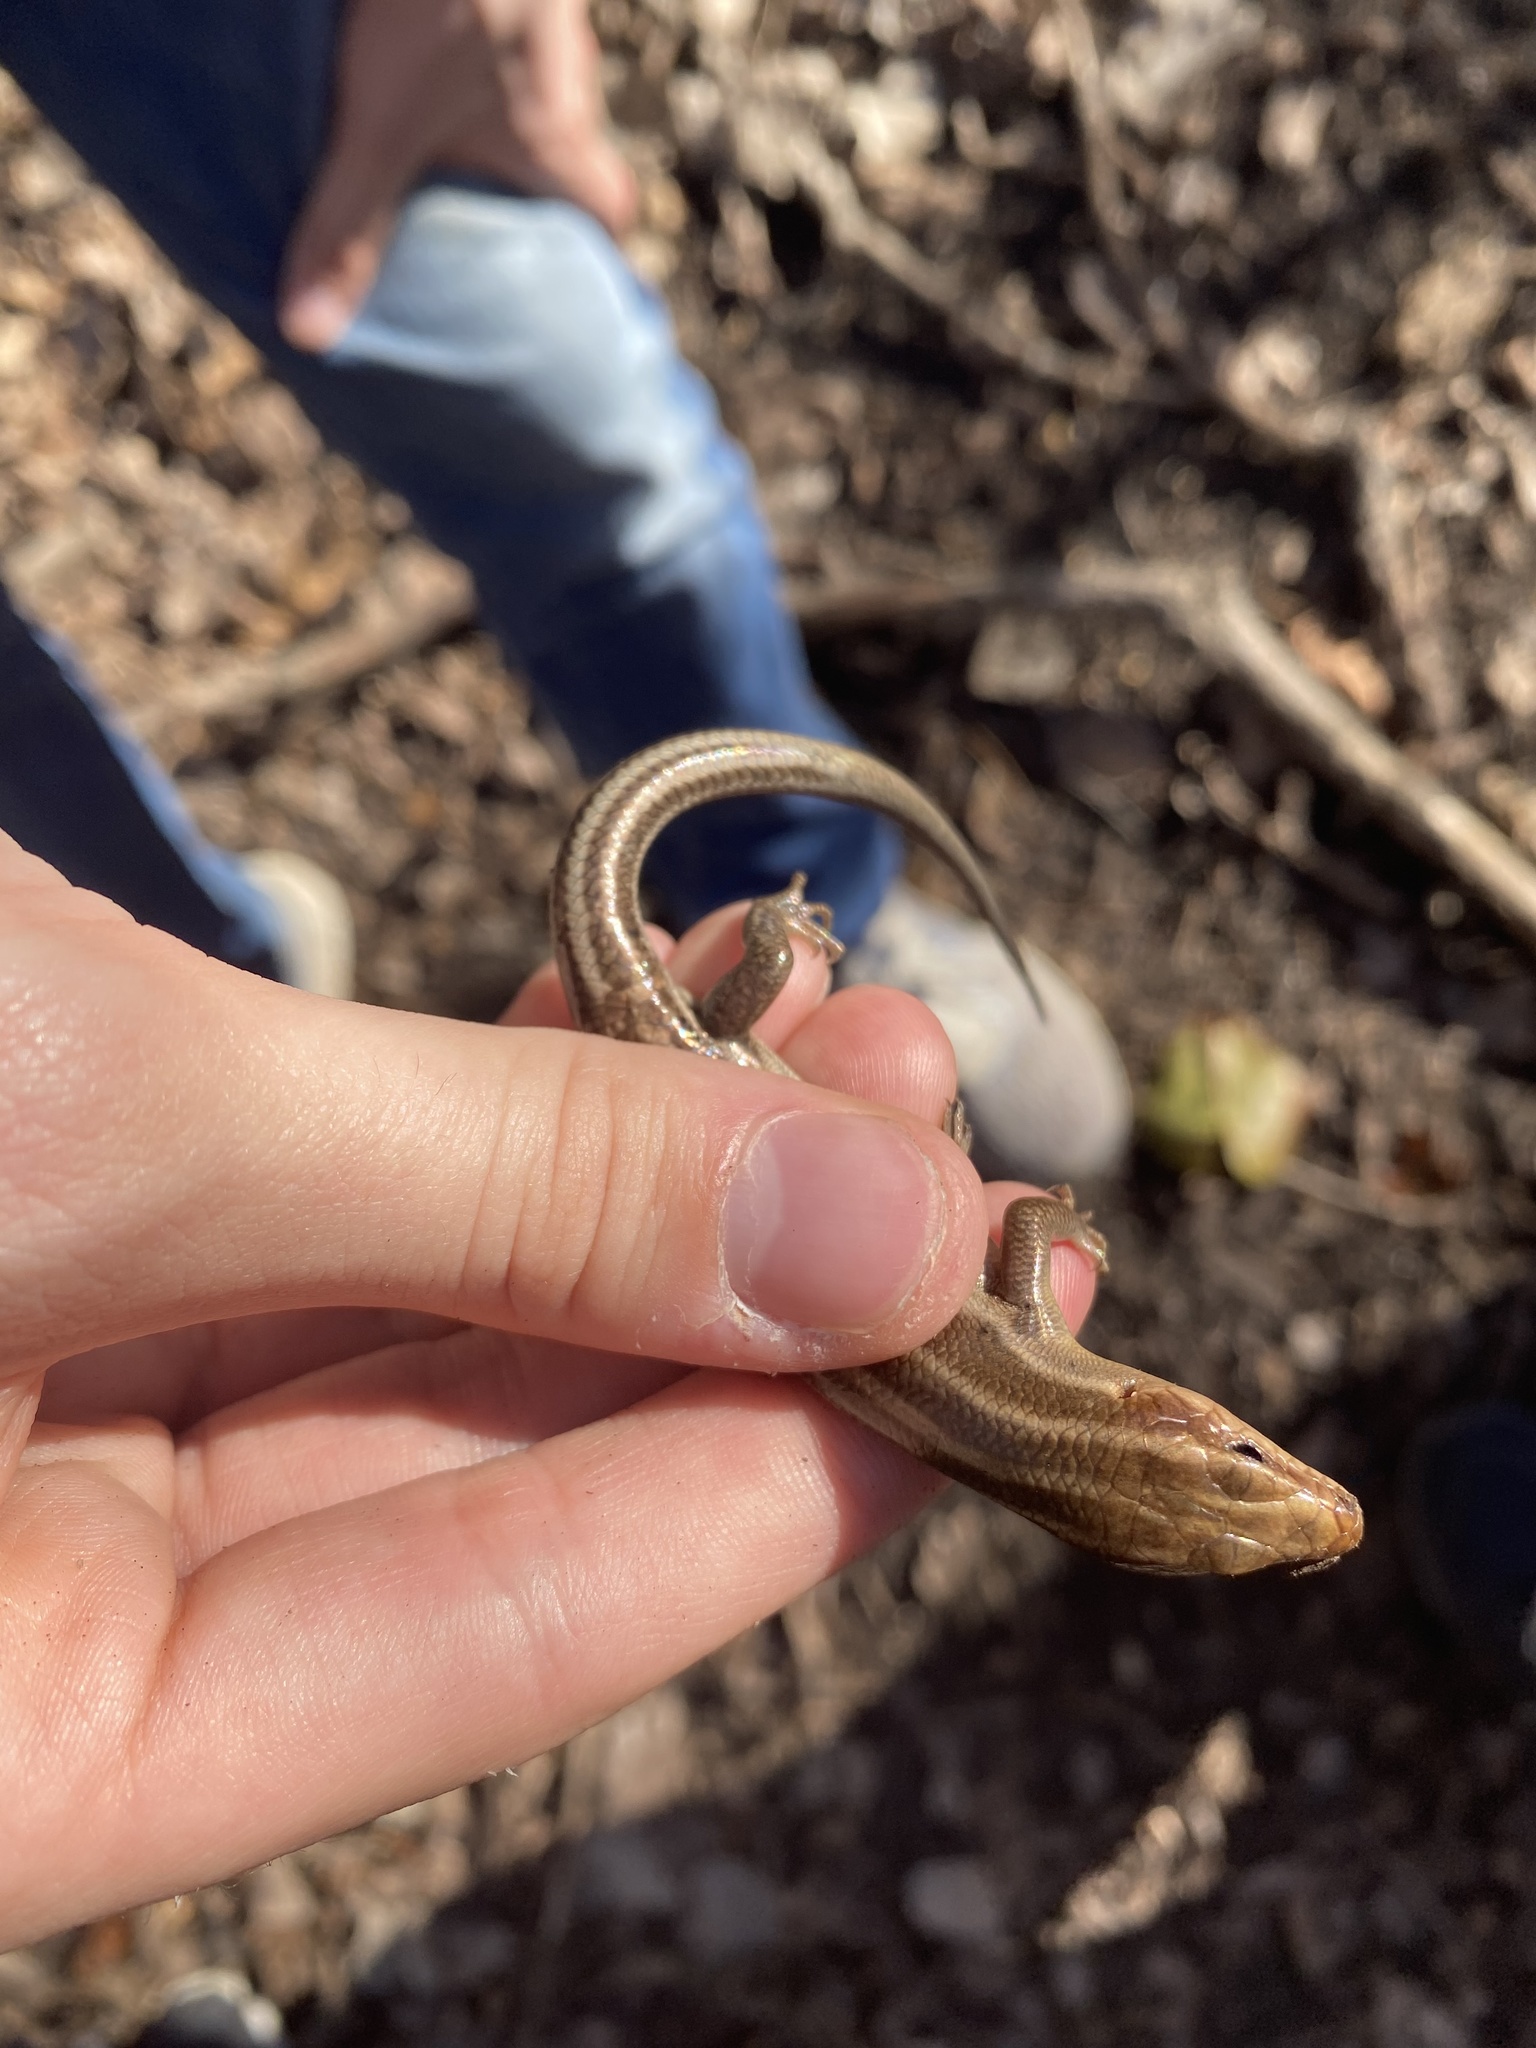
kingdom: Animalia
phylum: Chordata
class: Squamata
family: Scincidae
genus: Plestiodon
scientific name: Plestiodon fasciatus
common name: Five-lined skink
